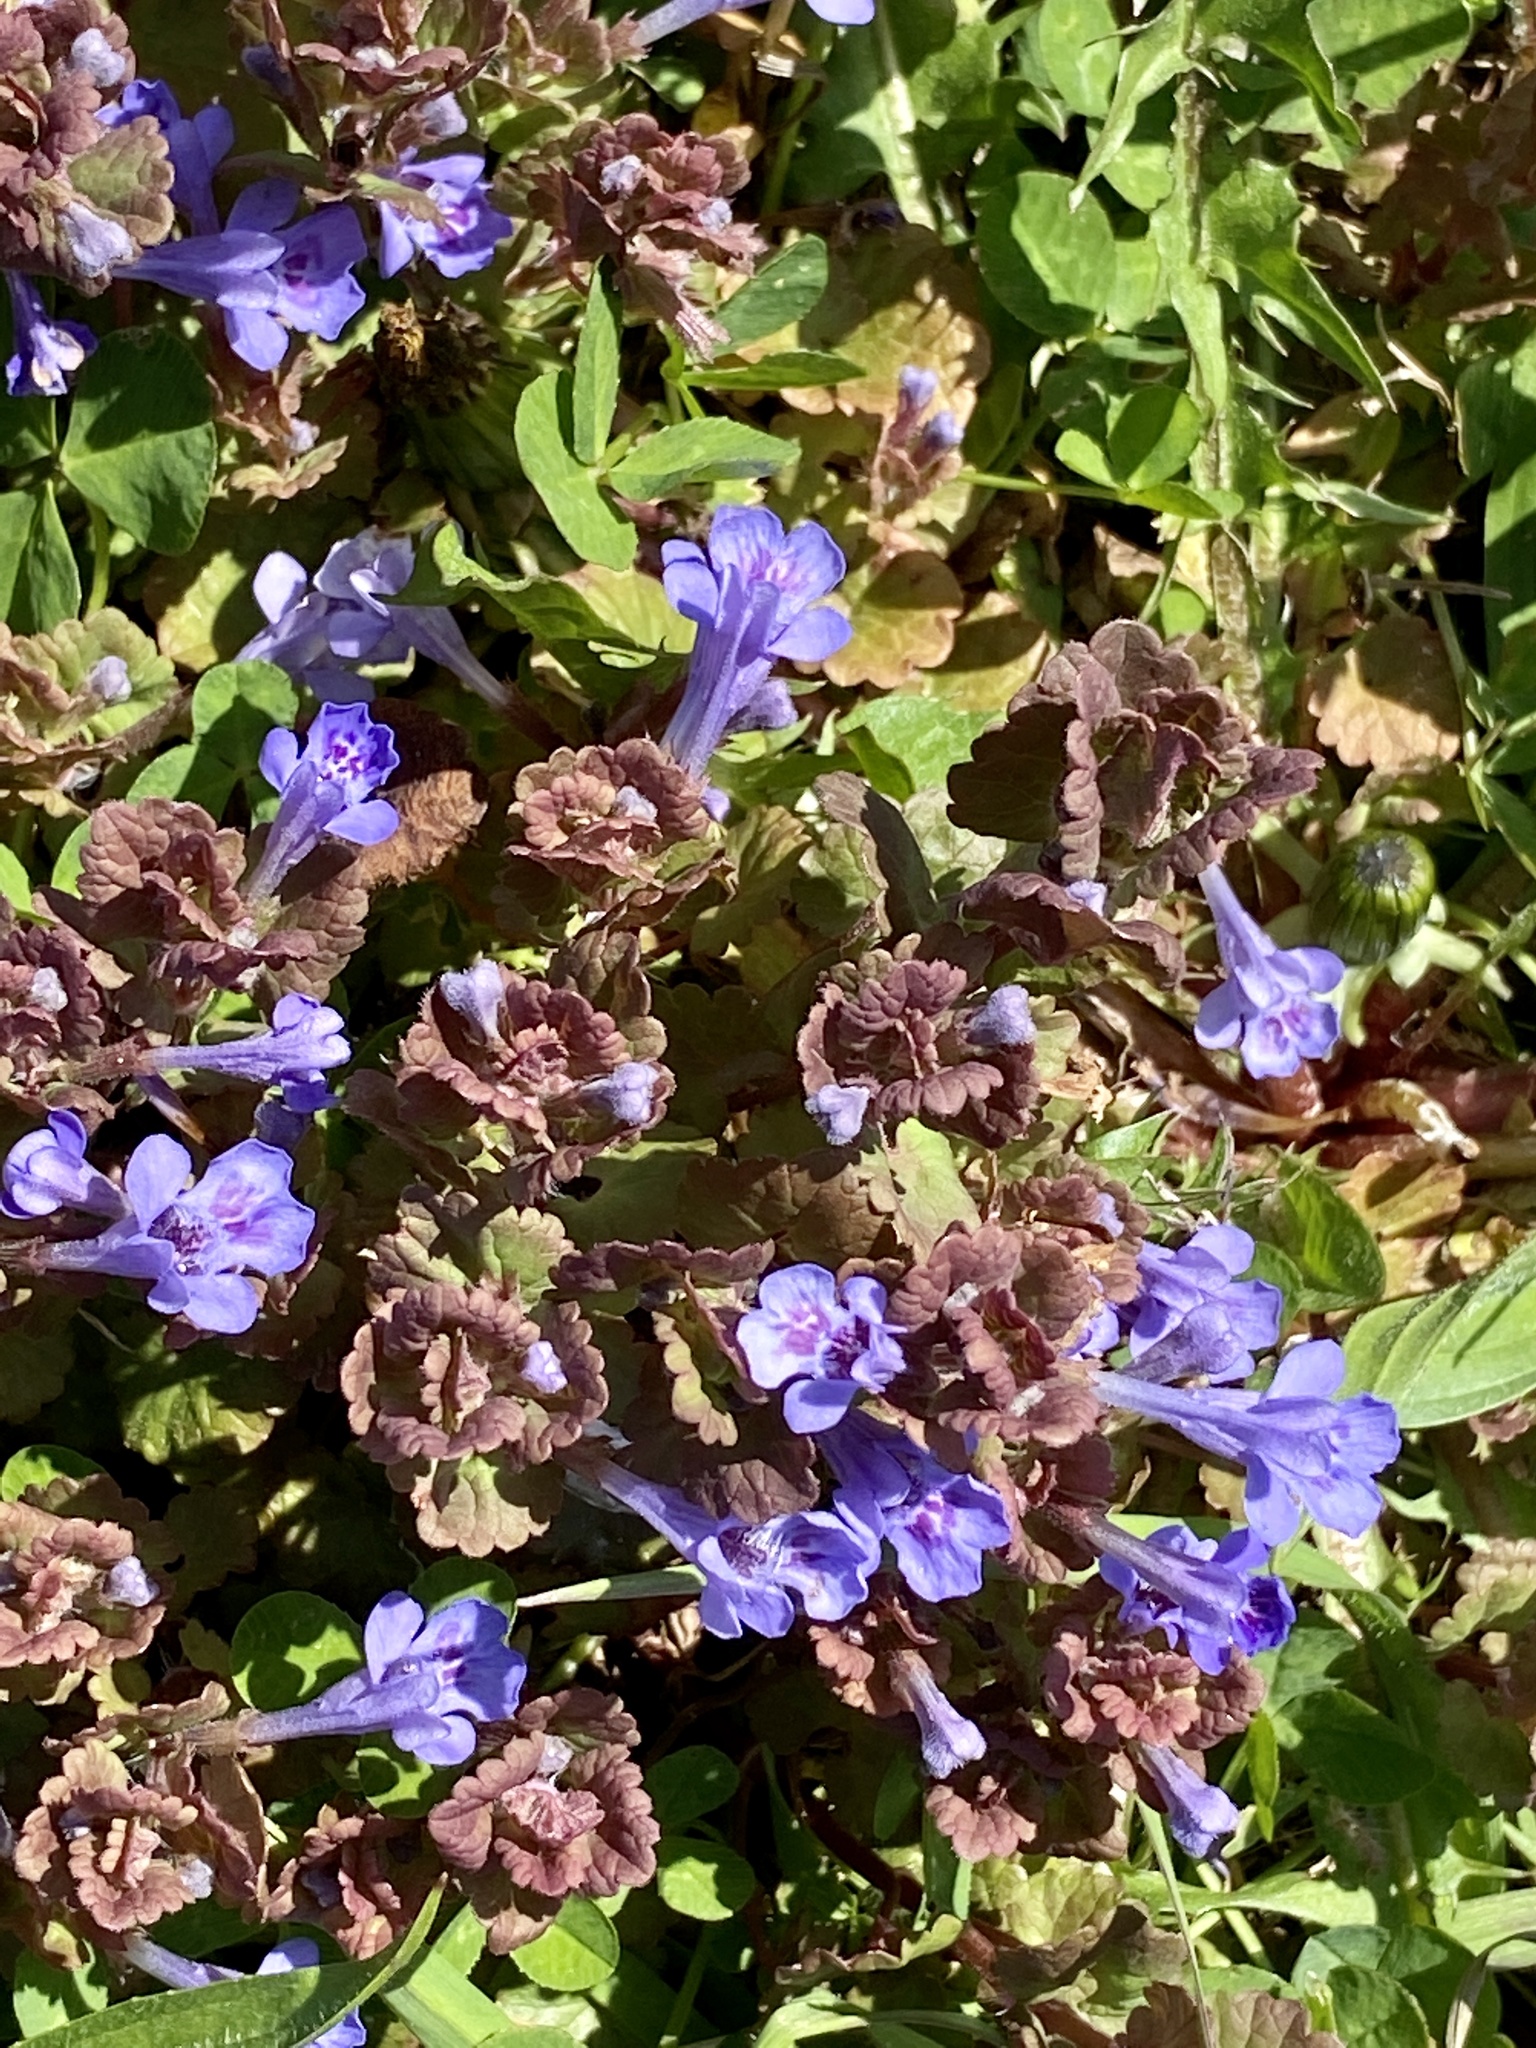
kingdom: Plantae
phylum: Tracheophyta
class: Magnoliopsida
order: Lamiales
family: Lamiaceae
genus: Glechoma
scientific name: Glechoma hederacea
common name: Ground ivy
